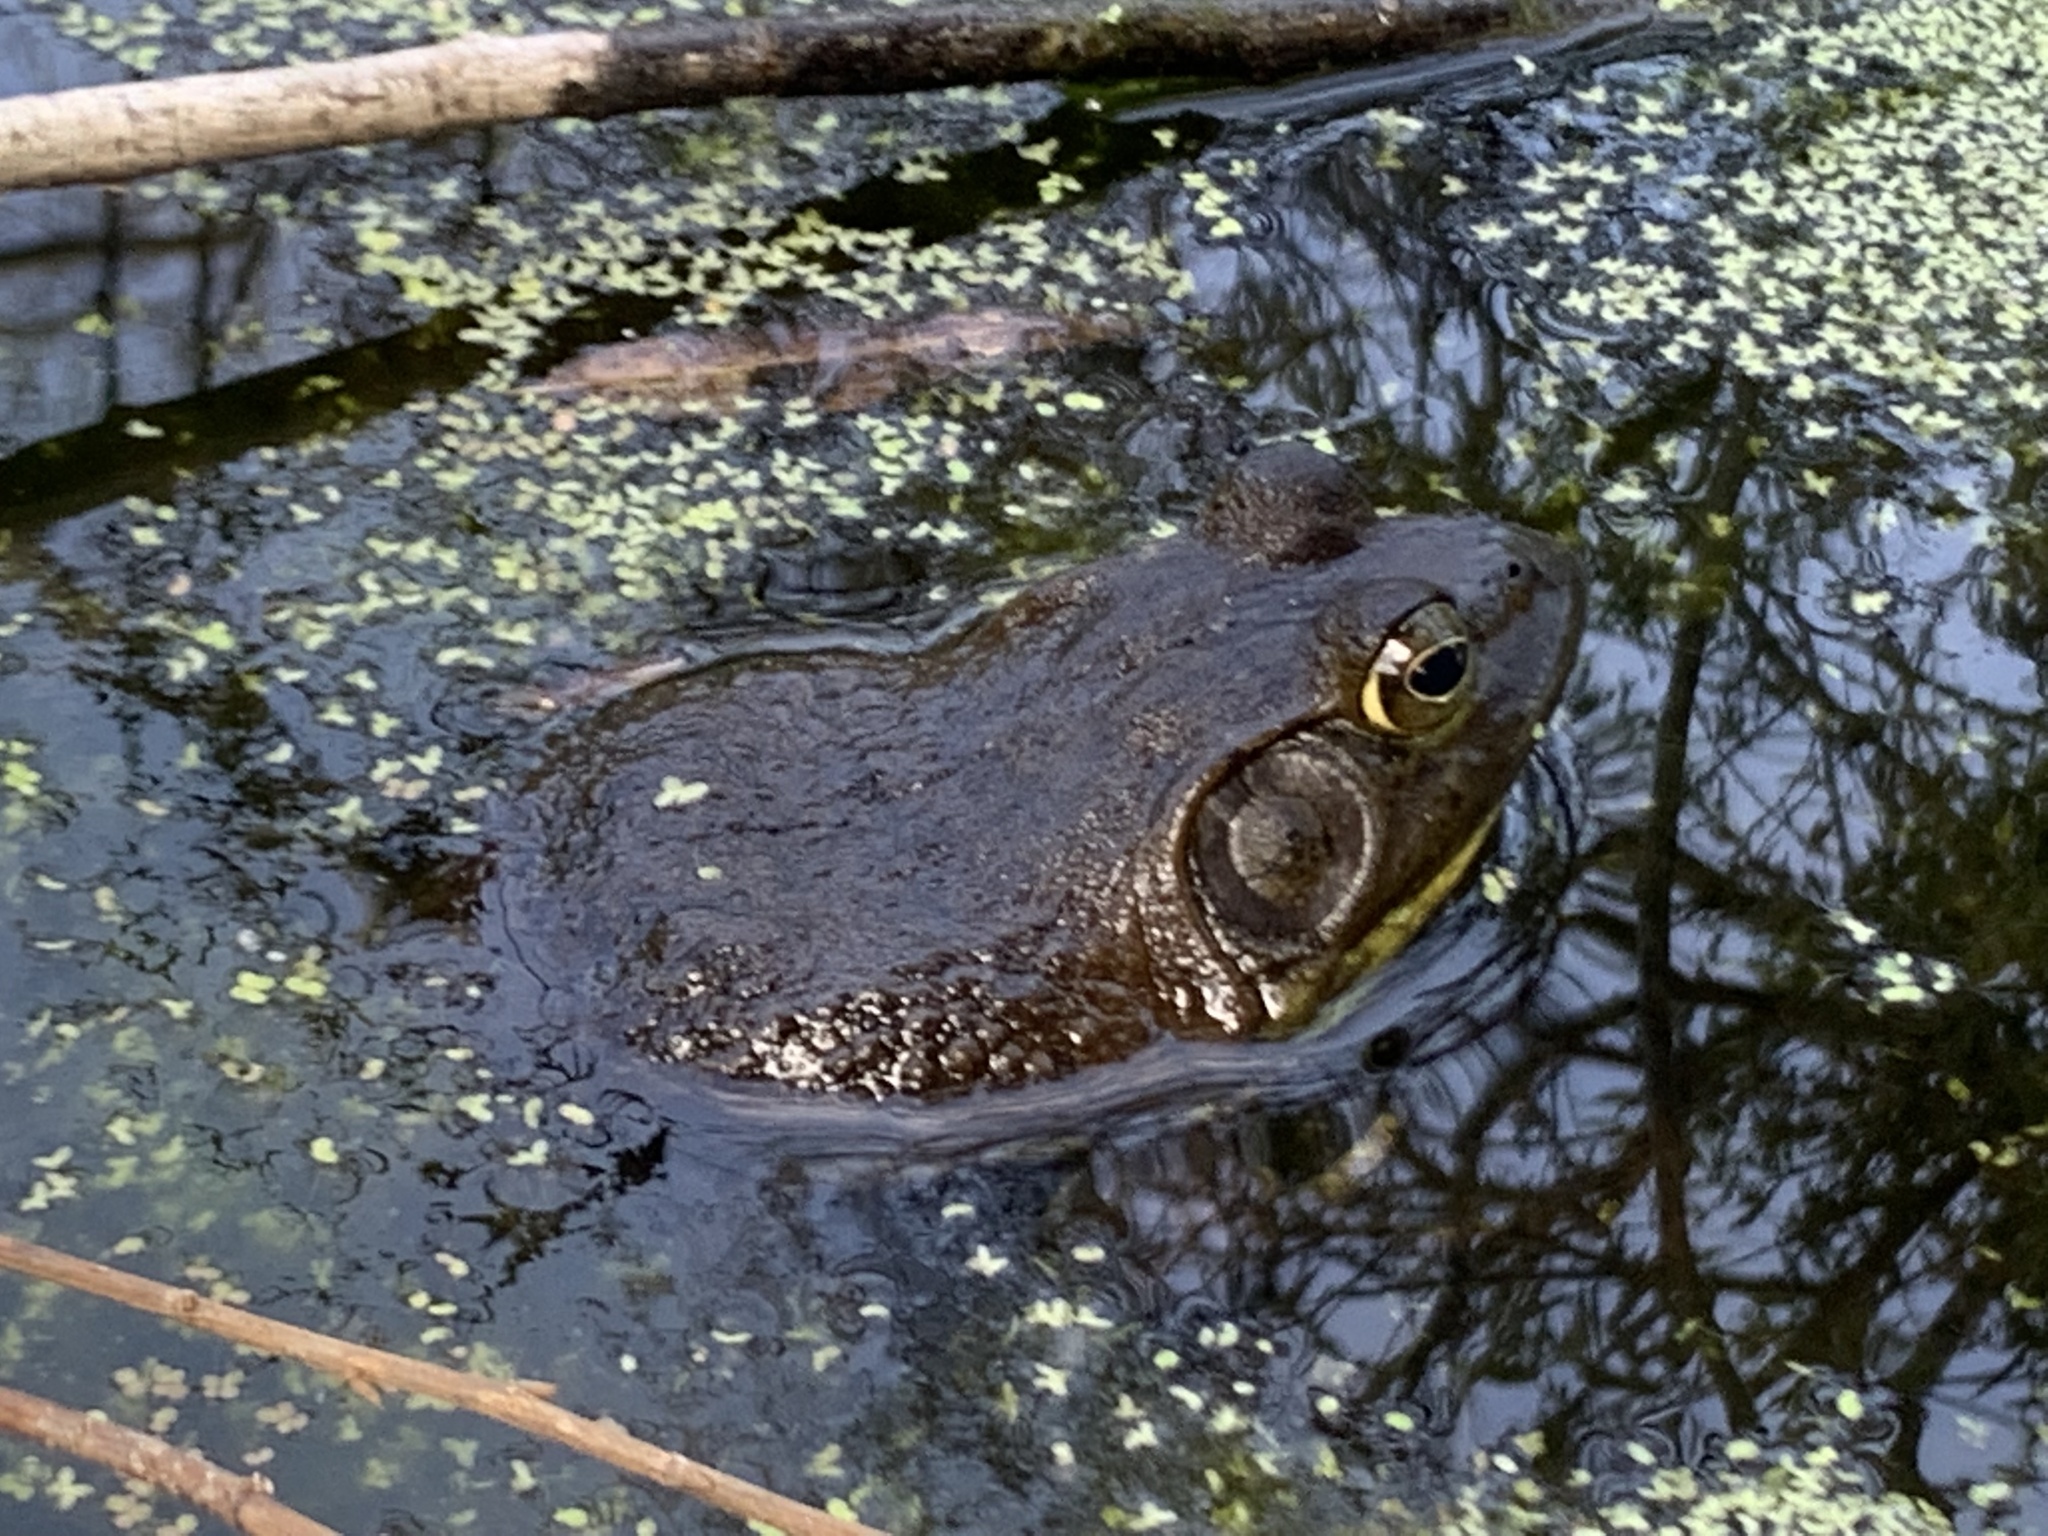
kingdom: Animalia
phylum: Chordata
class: Amphibia
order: Anura
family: Ranidae
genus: Lithobates
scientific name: Lithobates catesbeianus
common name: American bullfrog
